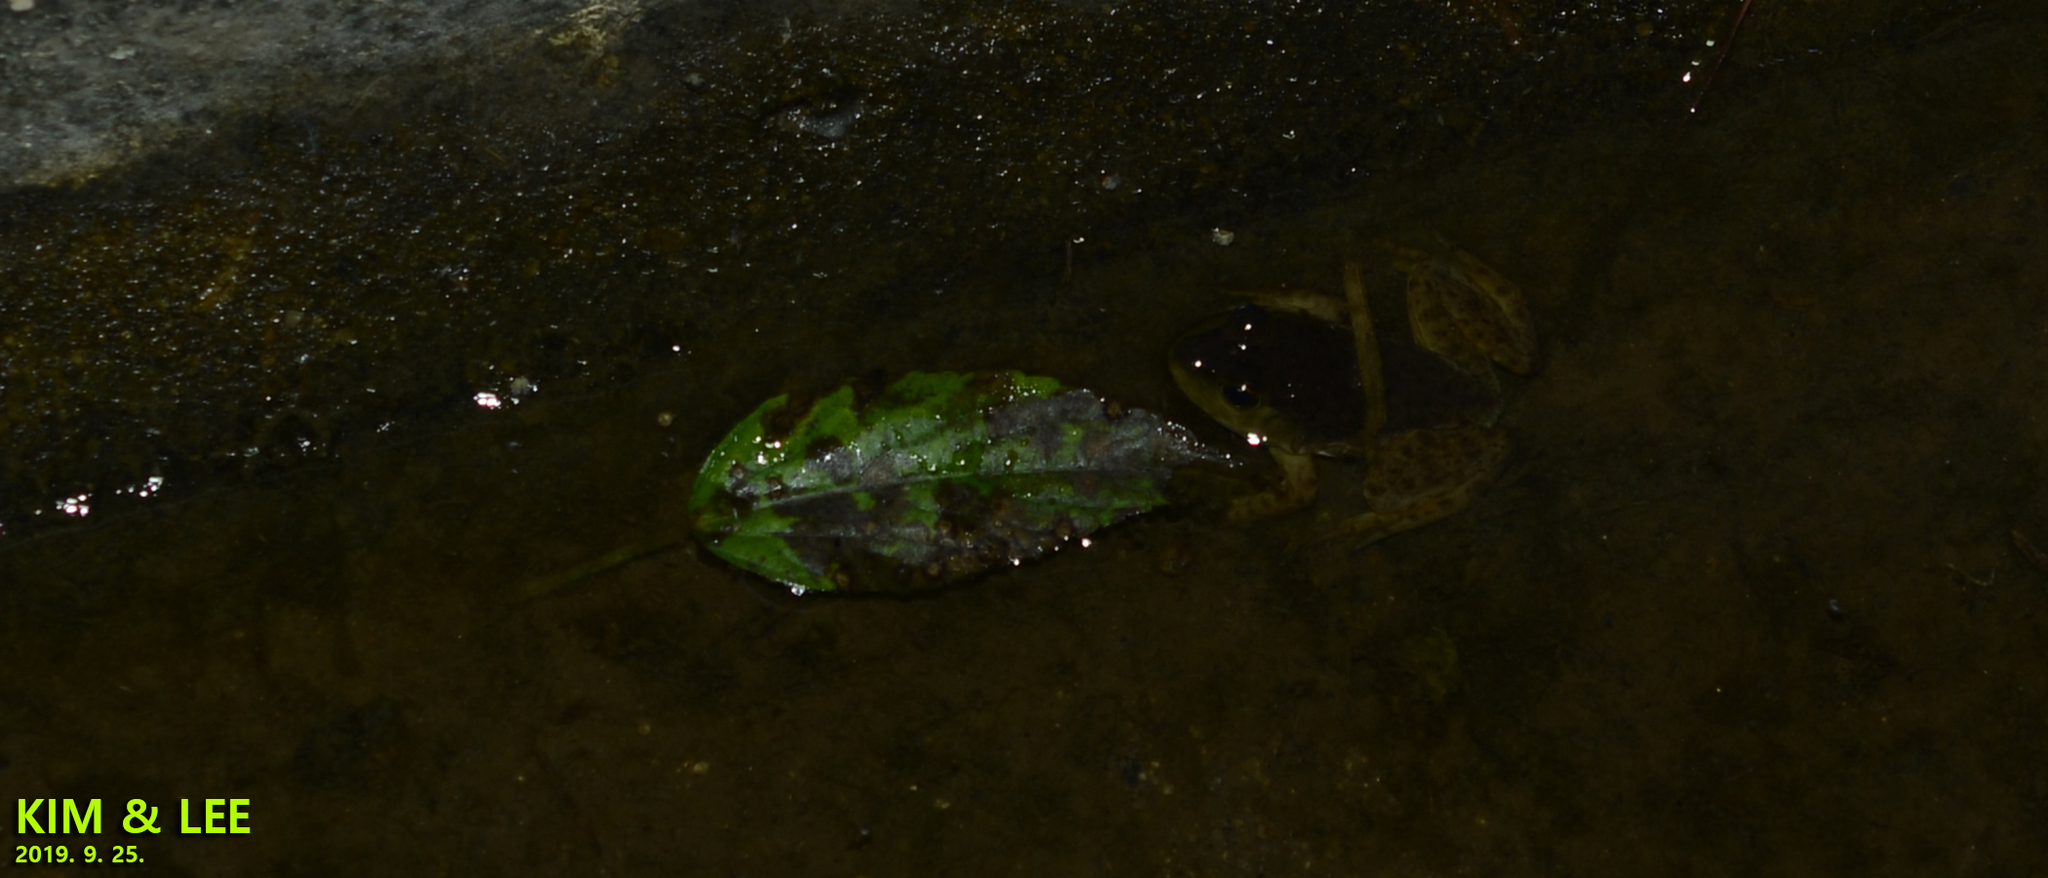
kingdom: Animalia
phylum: Chordata
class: Amphibia
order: Anura
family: Ranidae
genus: Lithobates
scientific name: Lithobates catesbeianus
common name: American bullfrog
